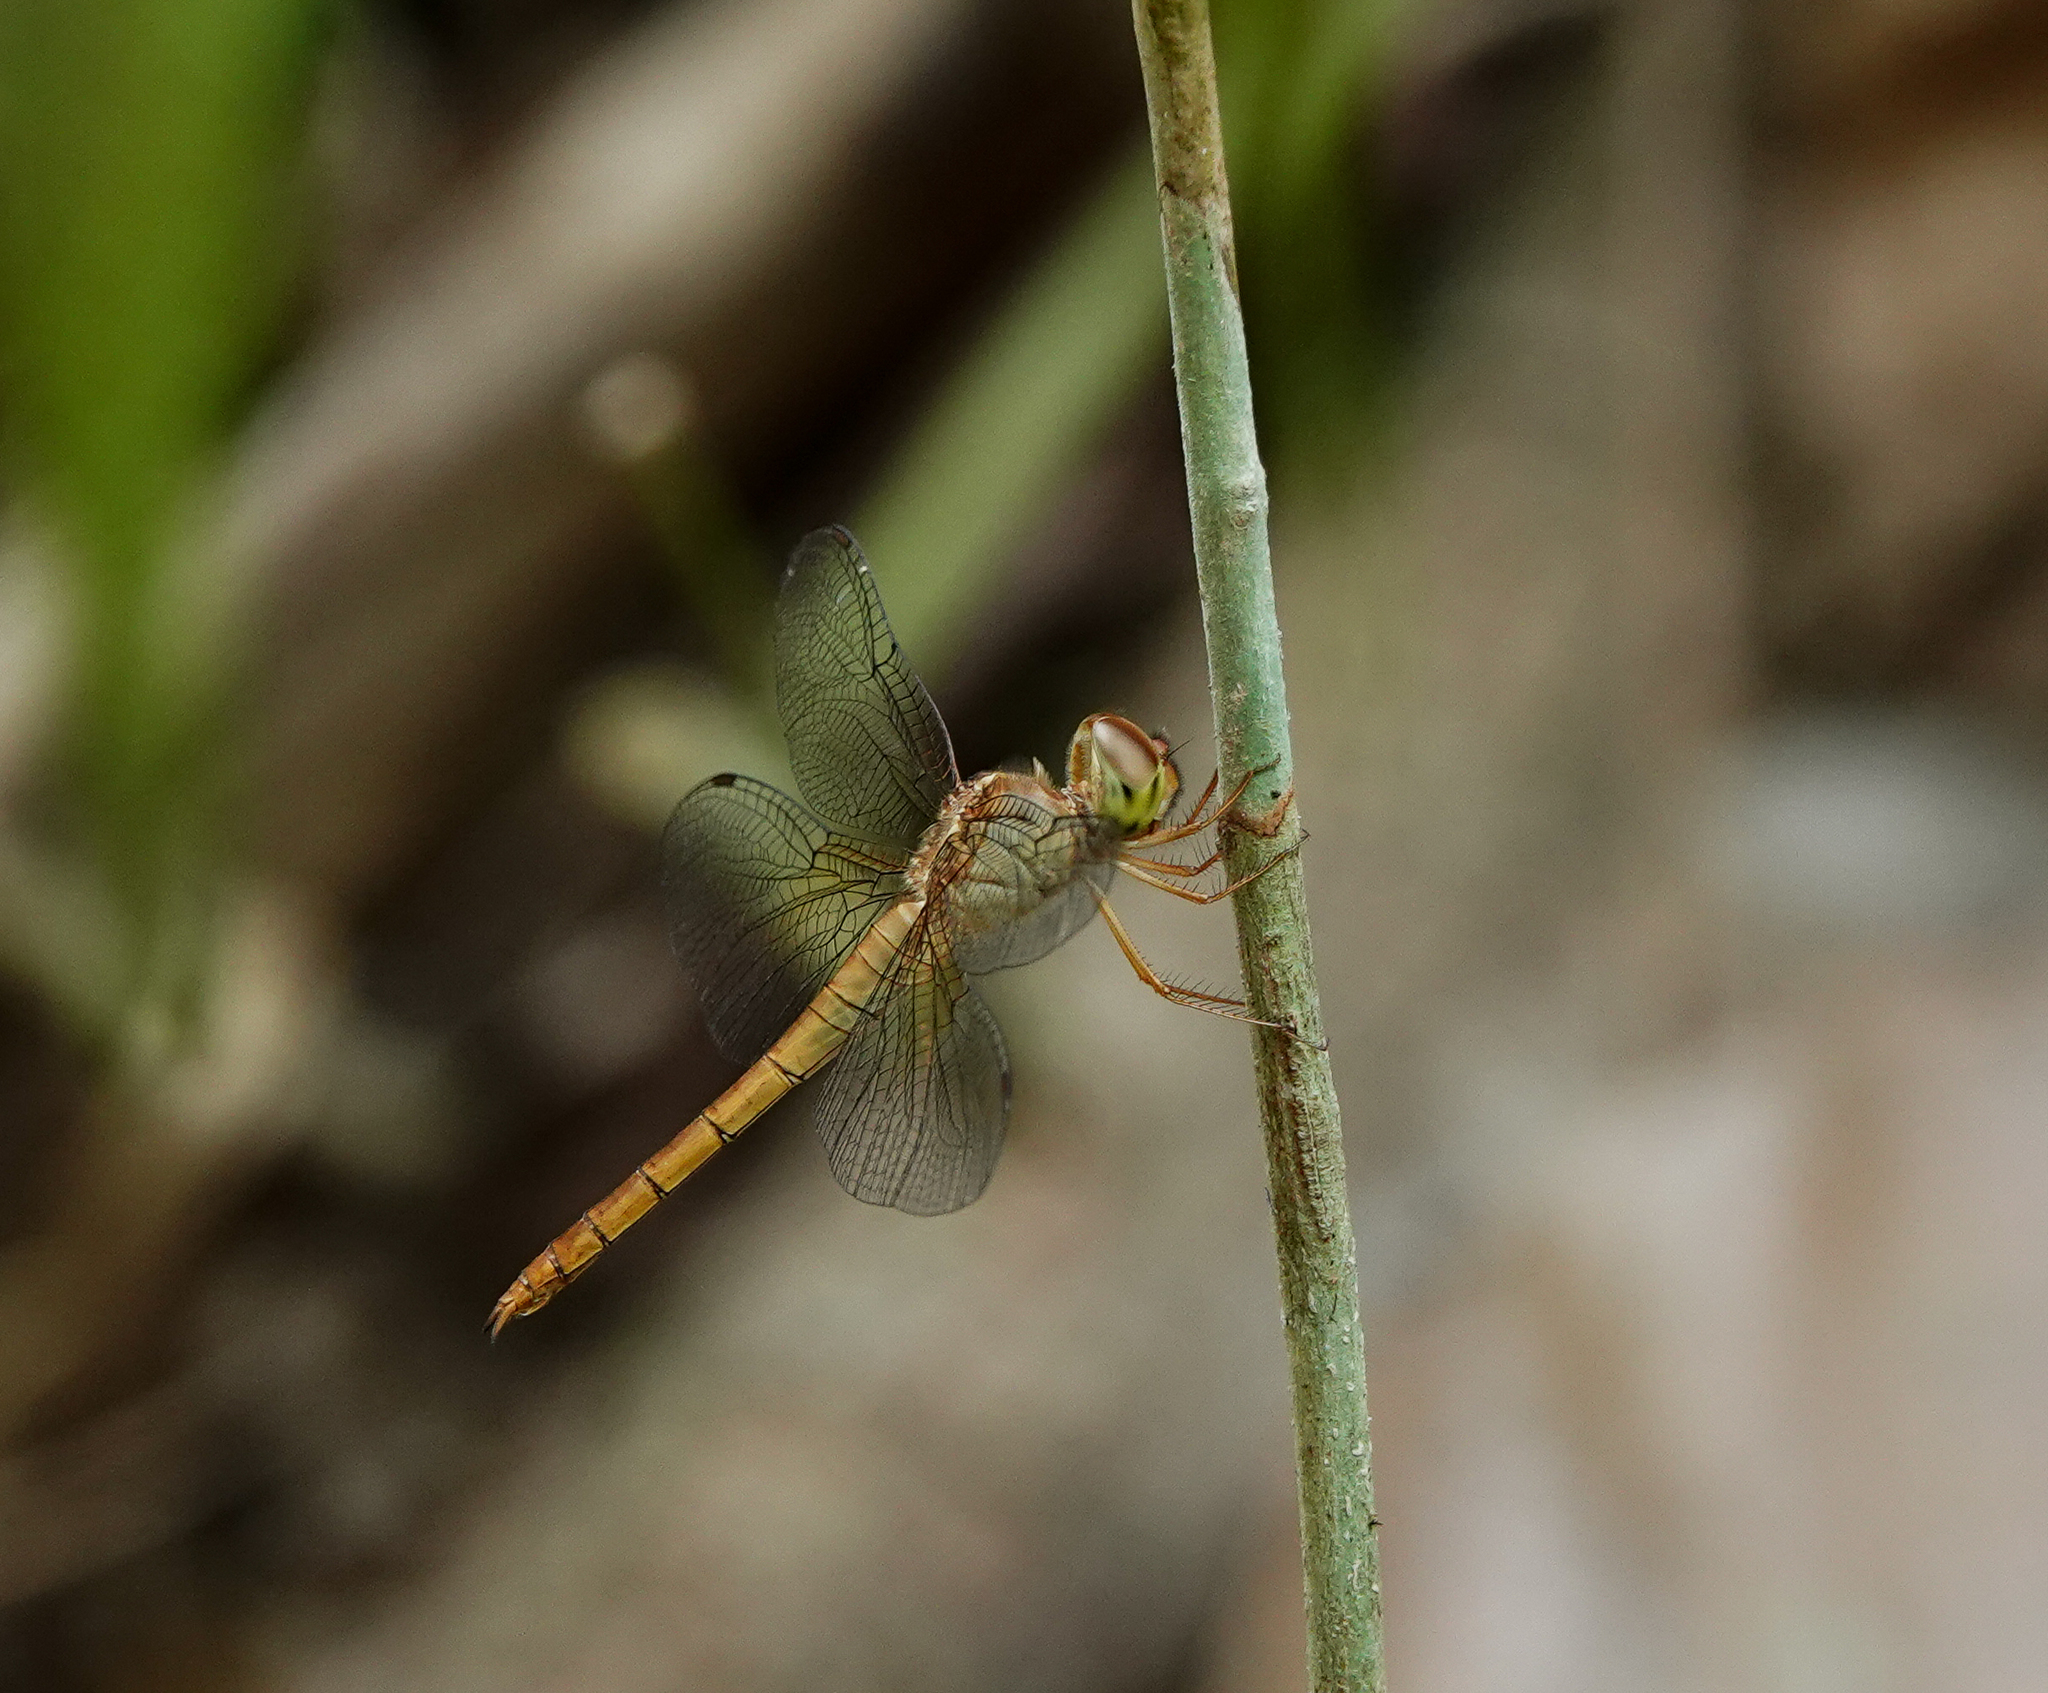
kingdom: Animalia
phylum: Arthropoda
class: Insecta
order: Odonata
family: Libellulidae
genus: Tholymis
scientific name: Tholymis tillarga
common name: Coral-tailed cloud wing
